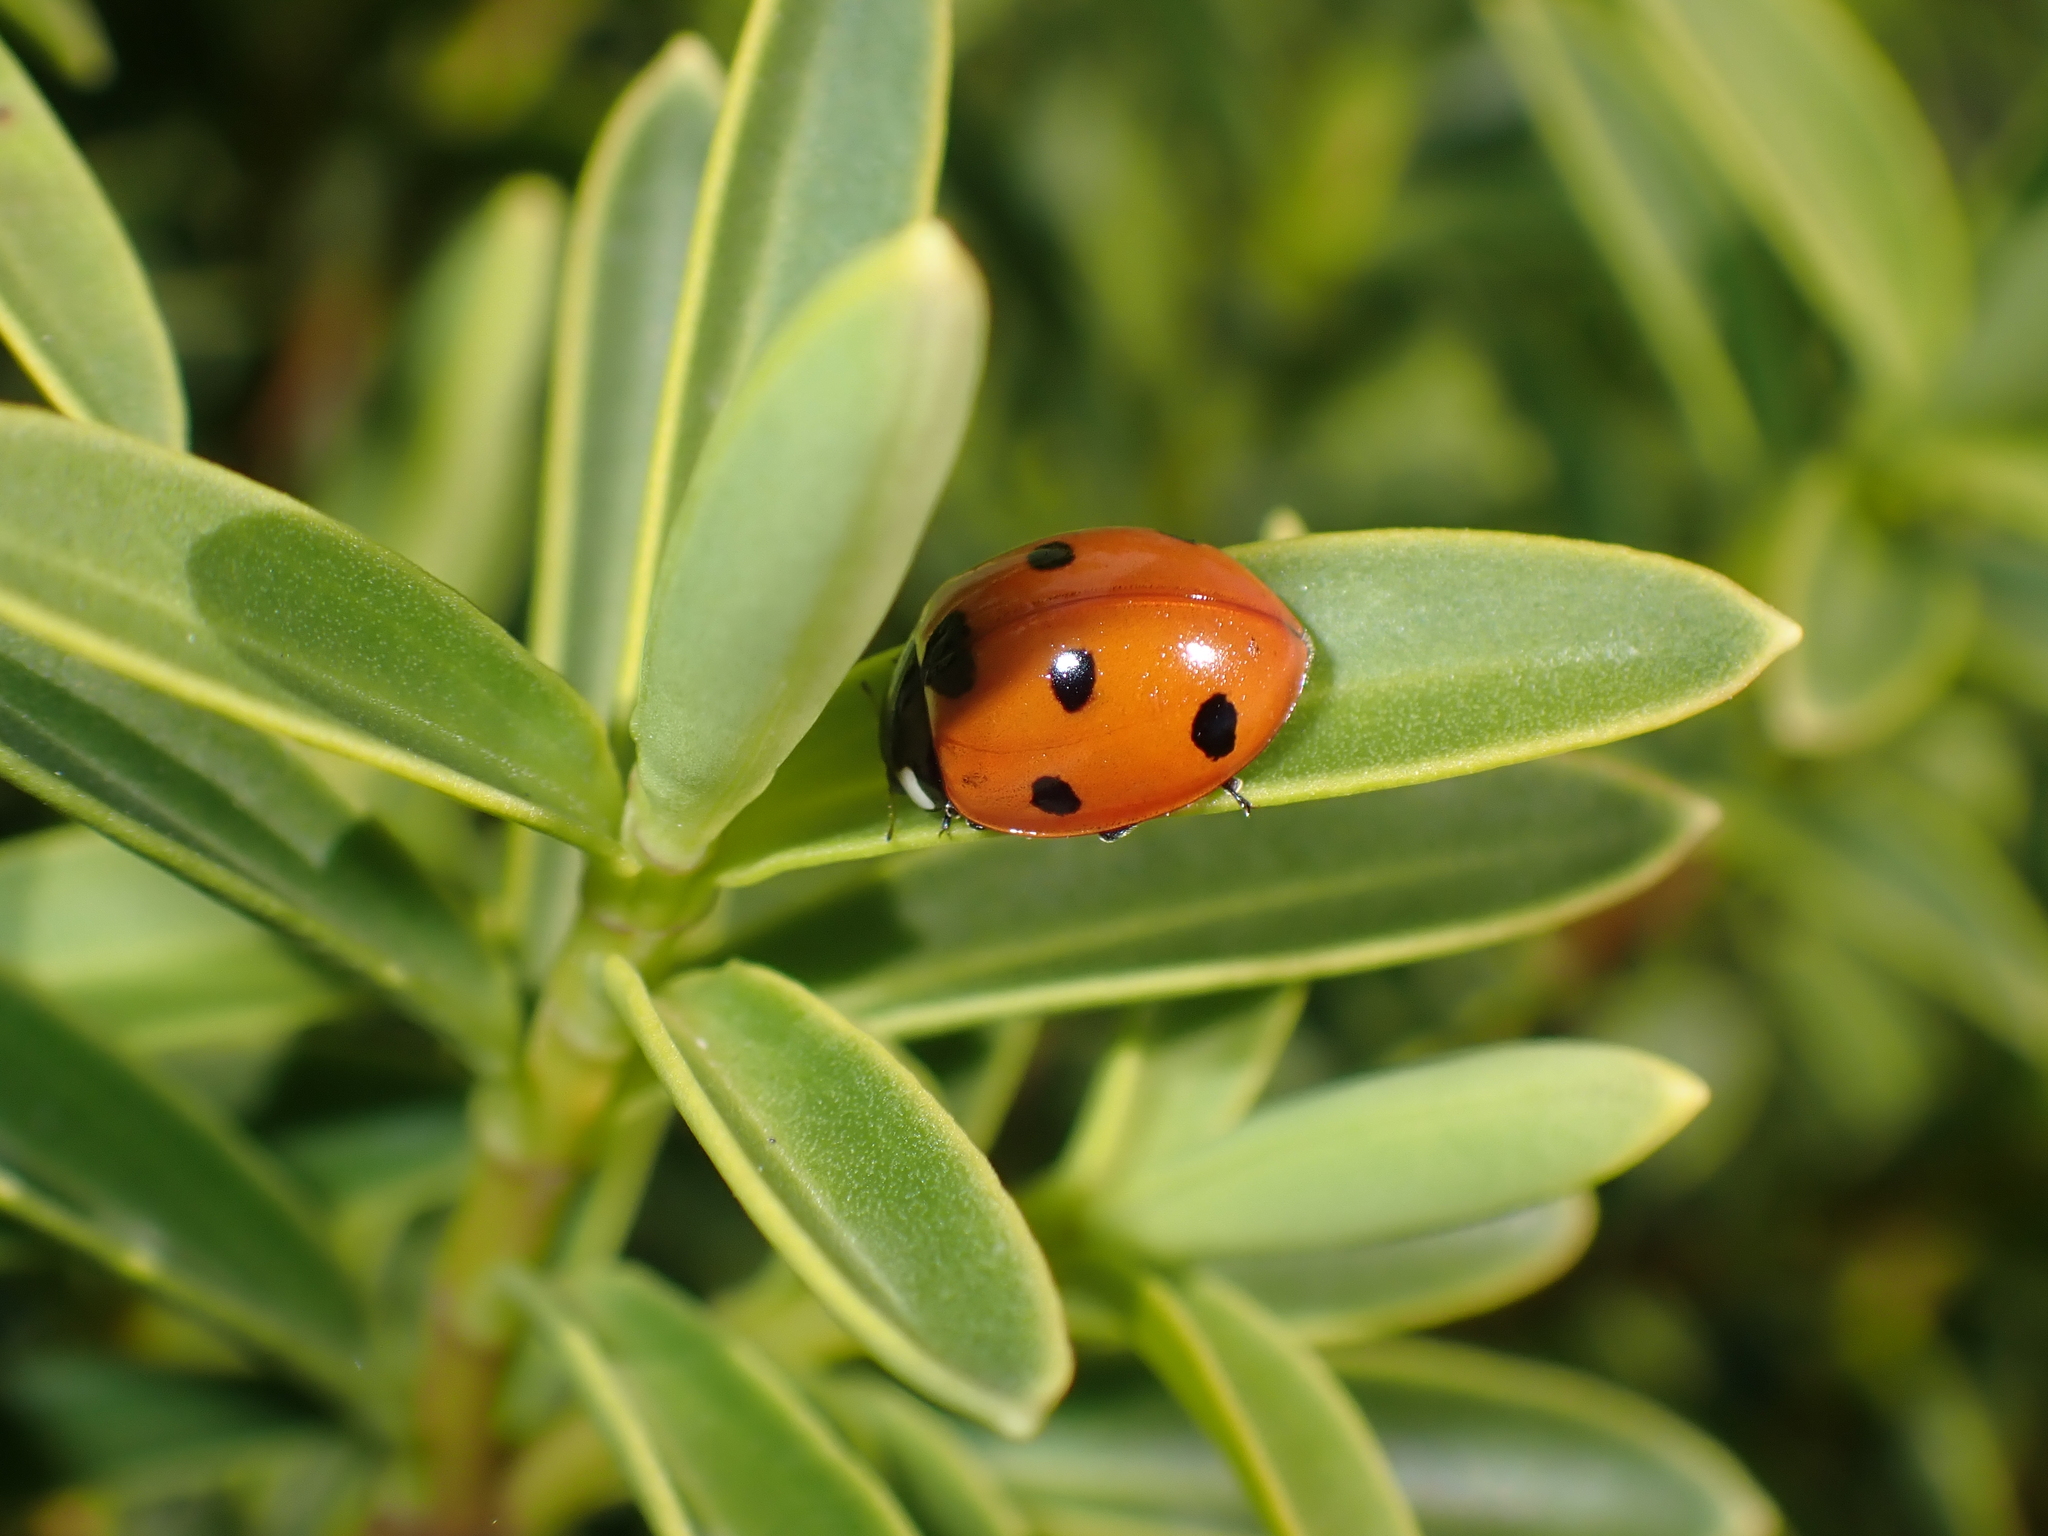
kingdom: Animalia
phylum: Arthropoda
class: Insecta
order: Coleoptera
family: Coccinellidae
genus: Coccinella
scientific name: Coccinella septempunctata
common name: Sevenspotted lady beetle
